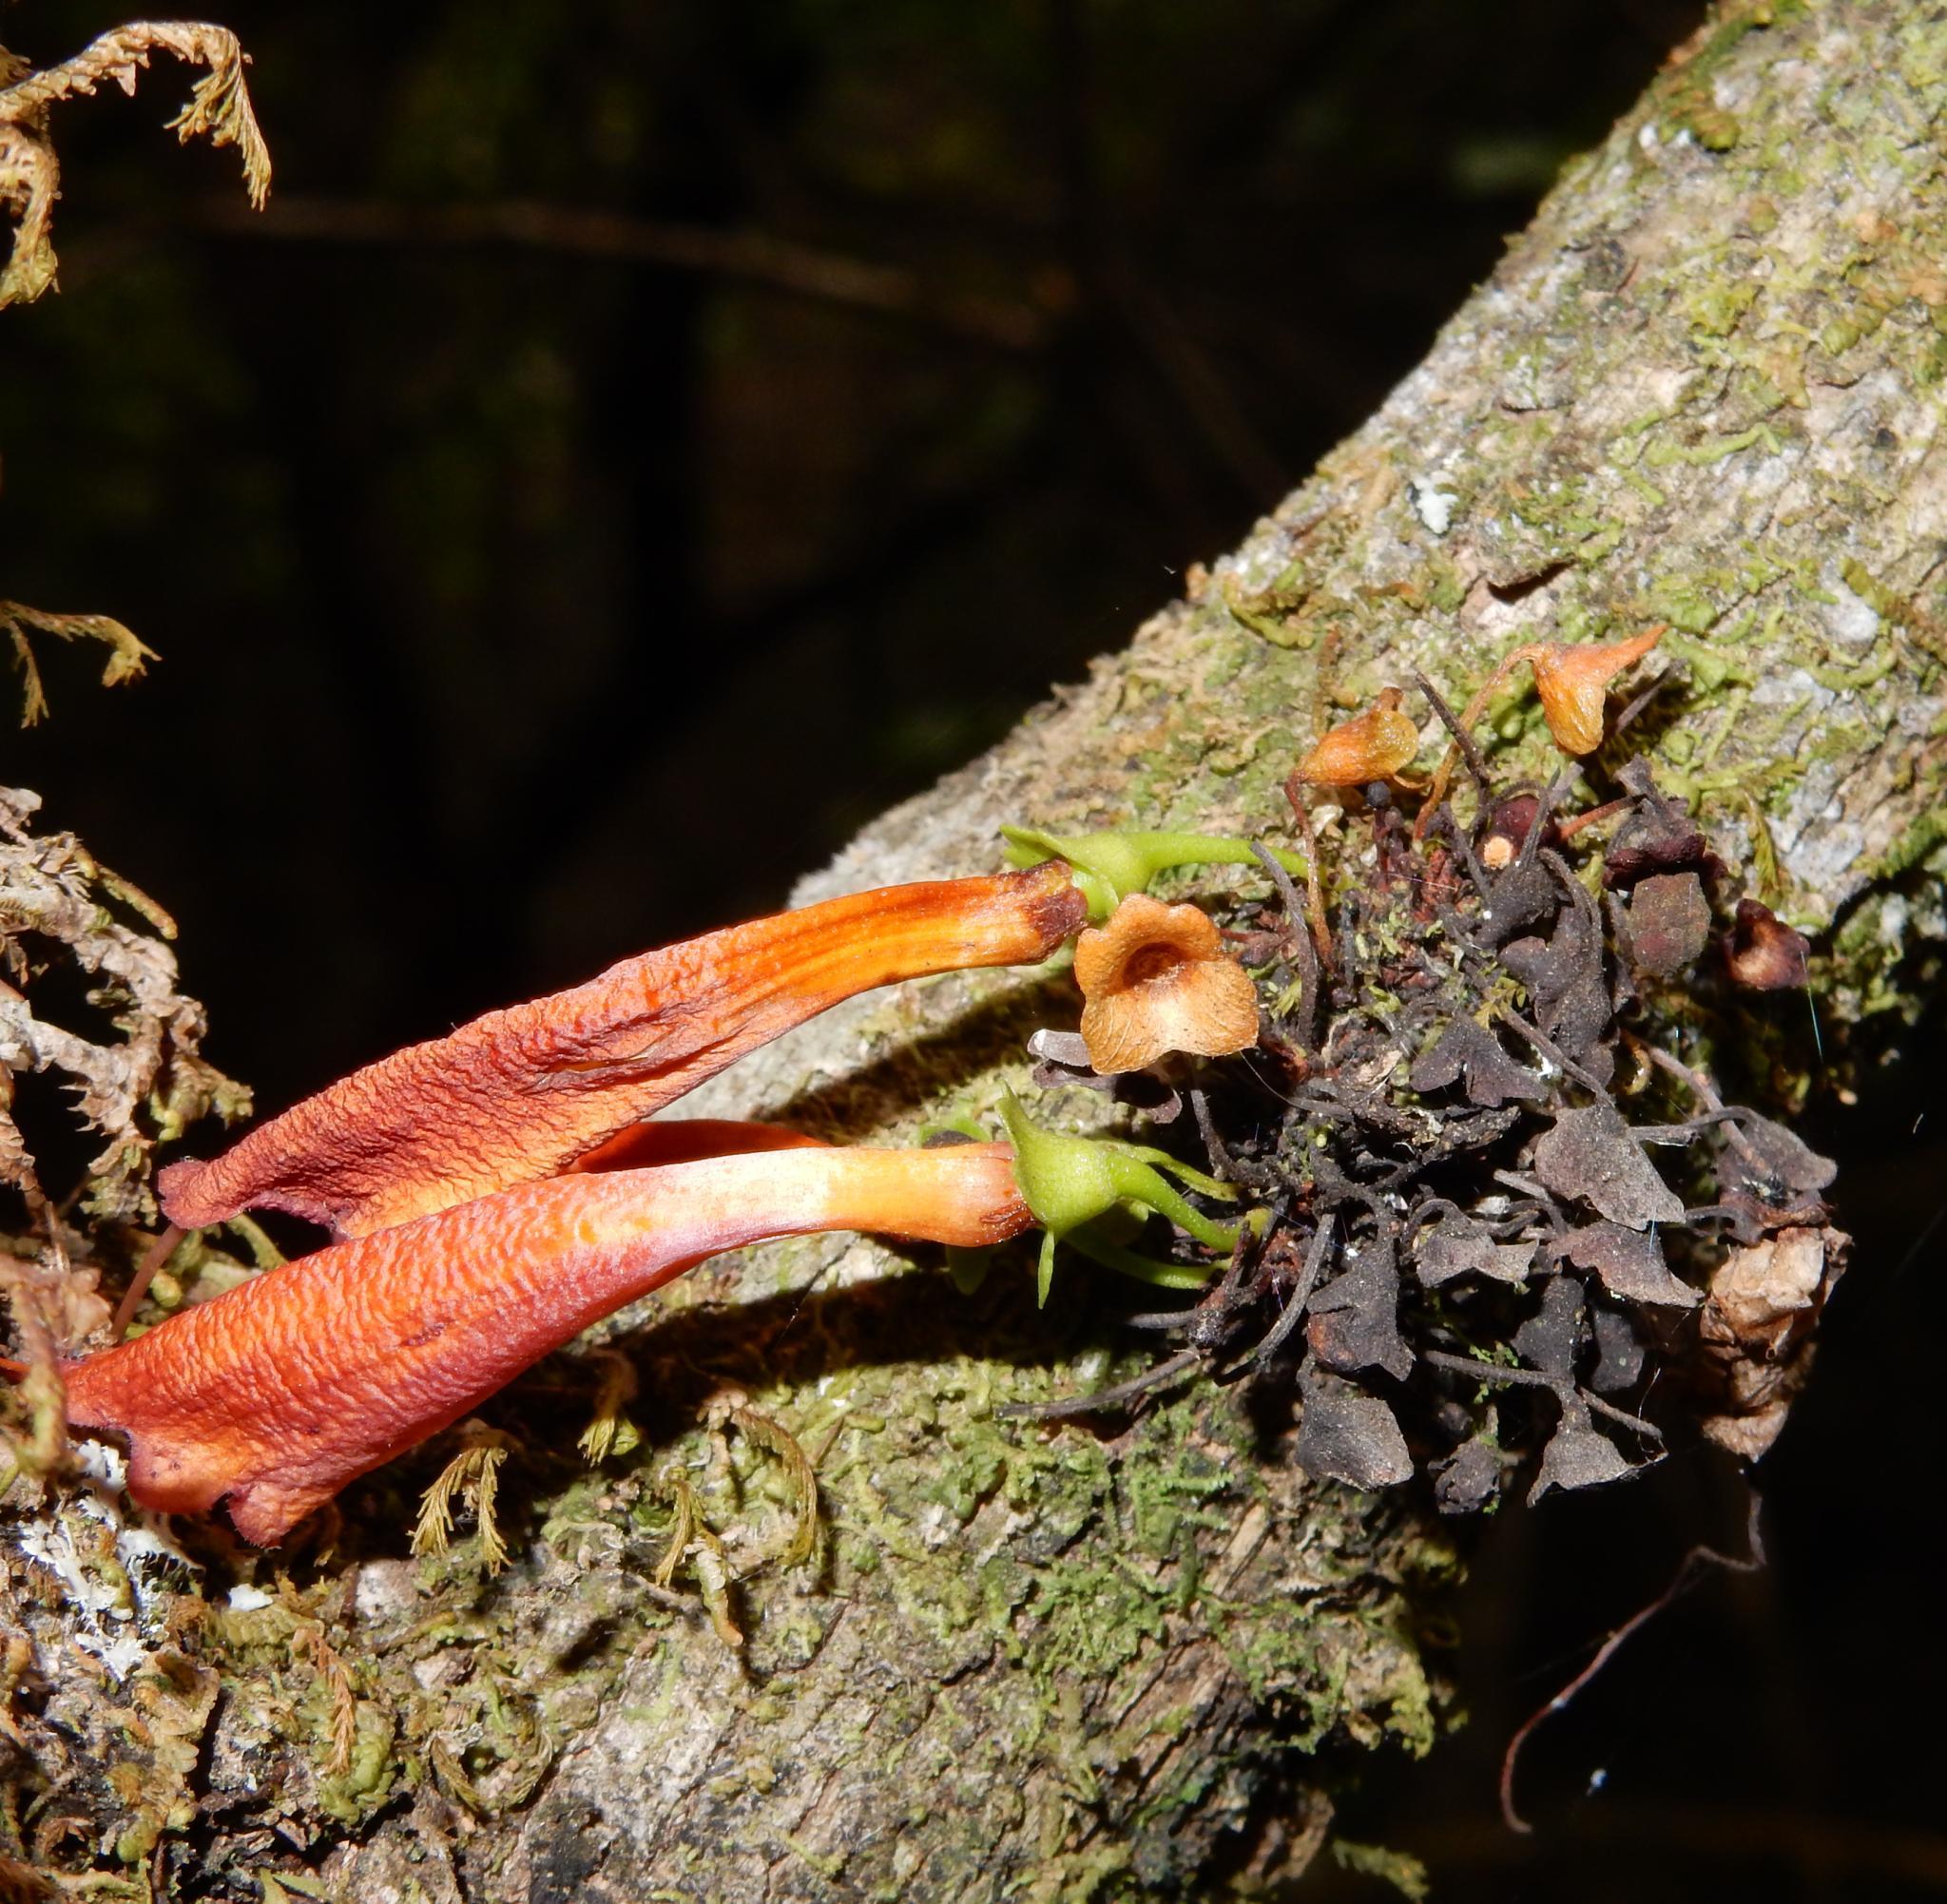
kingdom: Plantae
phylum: Tracheophyta
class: Magnoliopsida
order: Lamiales
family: Stilbaceae
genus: Halleria
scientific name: Halleria lucida
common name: Tree fuschia
